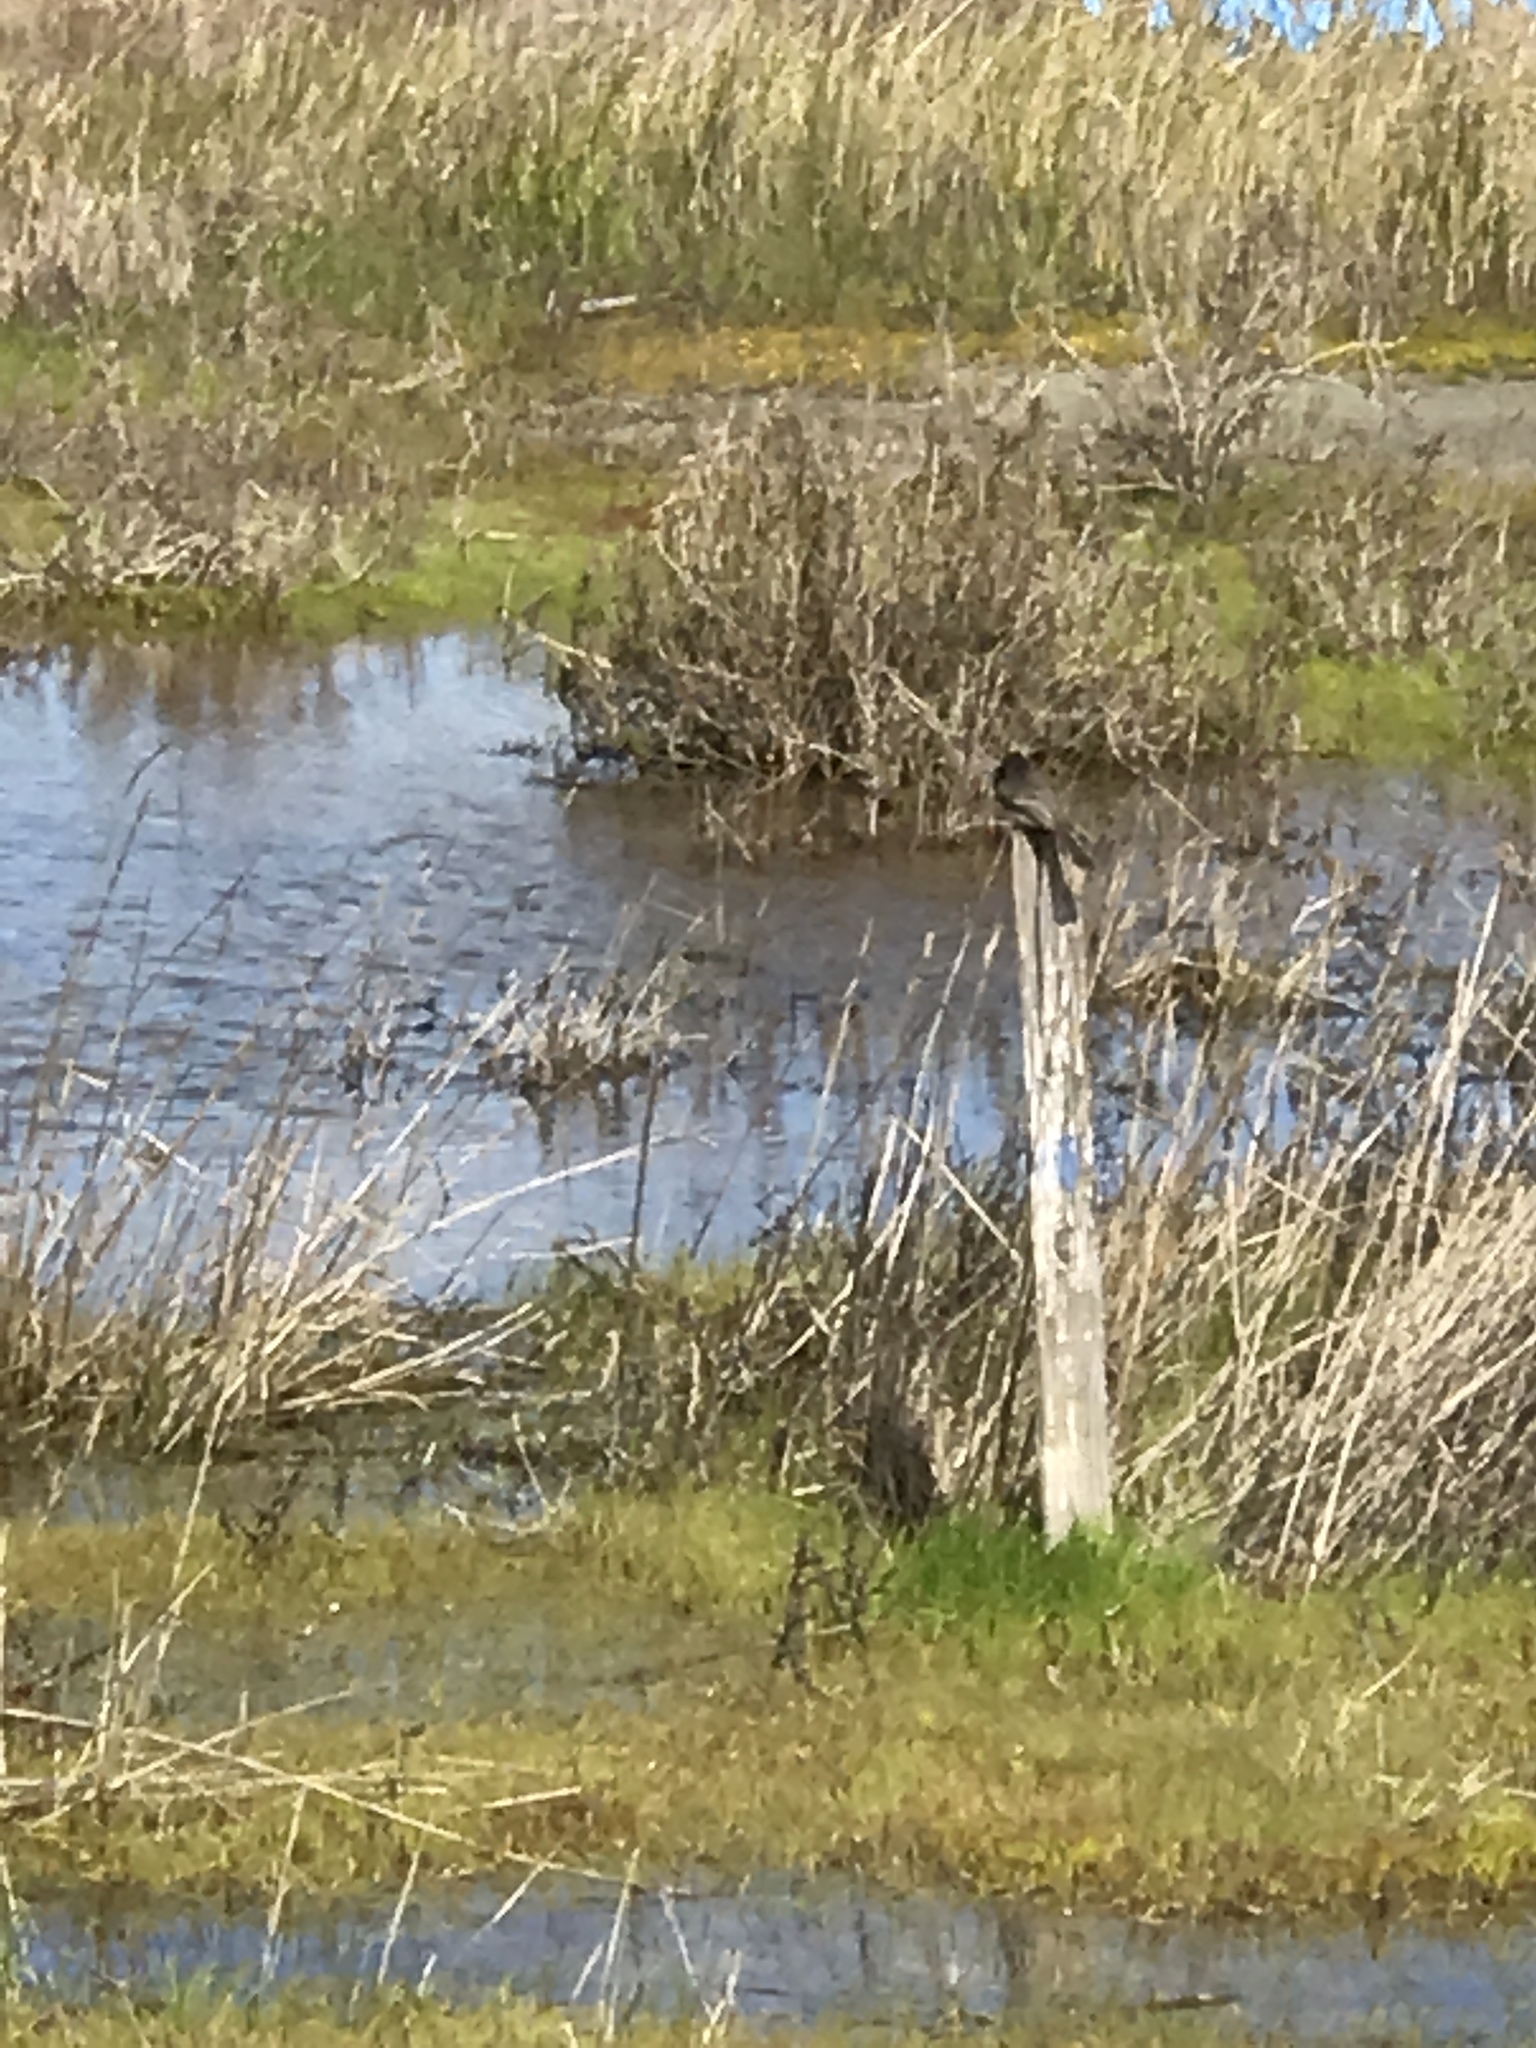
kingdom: Animalia
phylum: Chordata
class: Aves
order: Passeriformes
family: Tyrannidae
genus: Sayornis
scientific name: Sayornis nigricans
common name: Black phoebe
